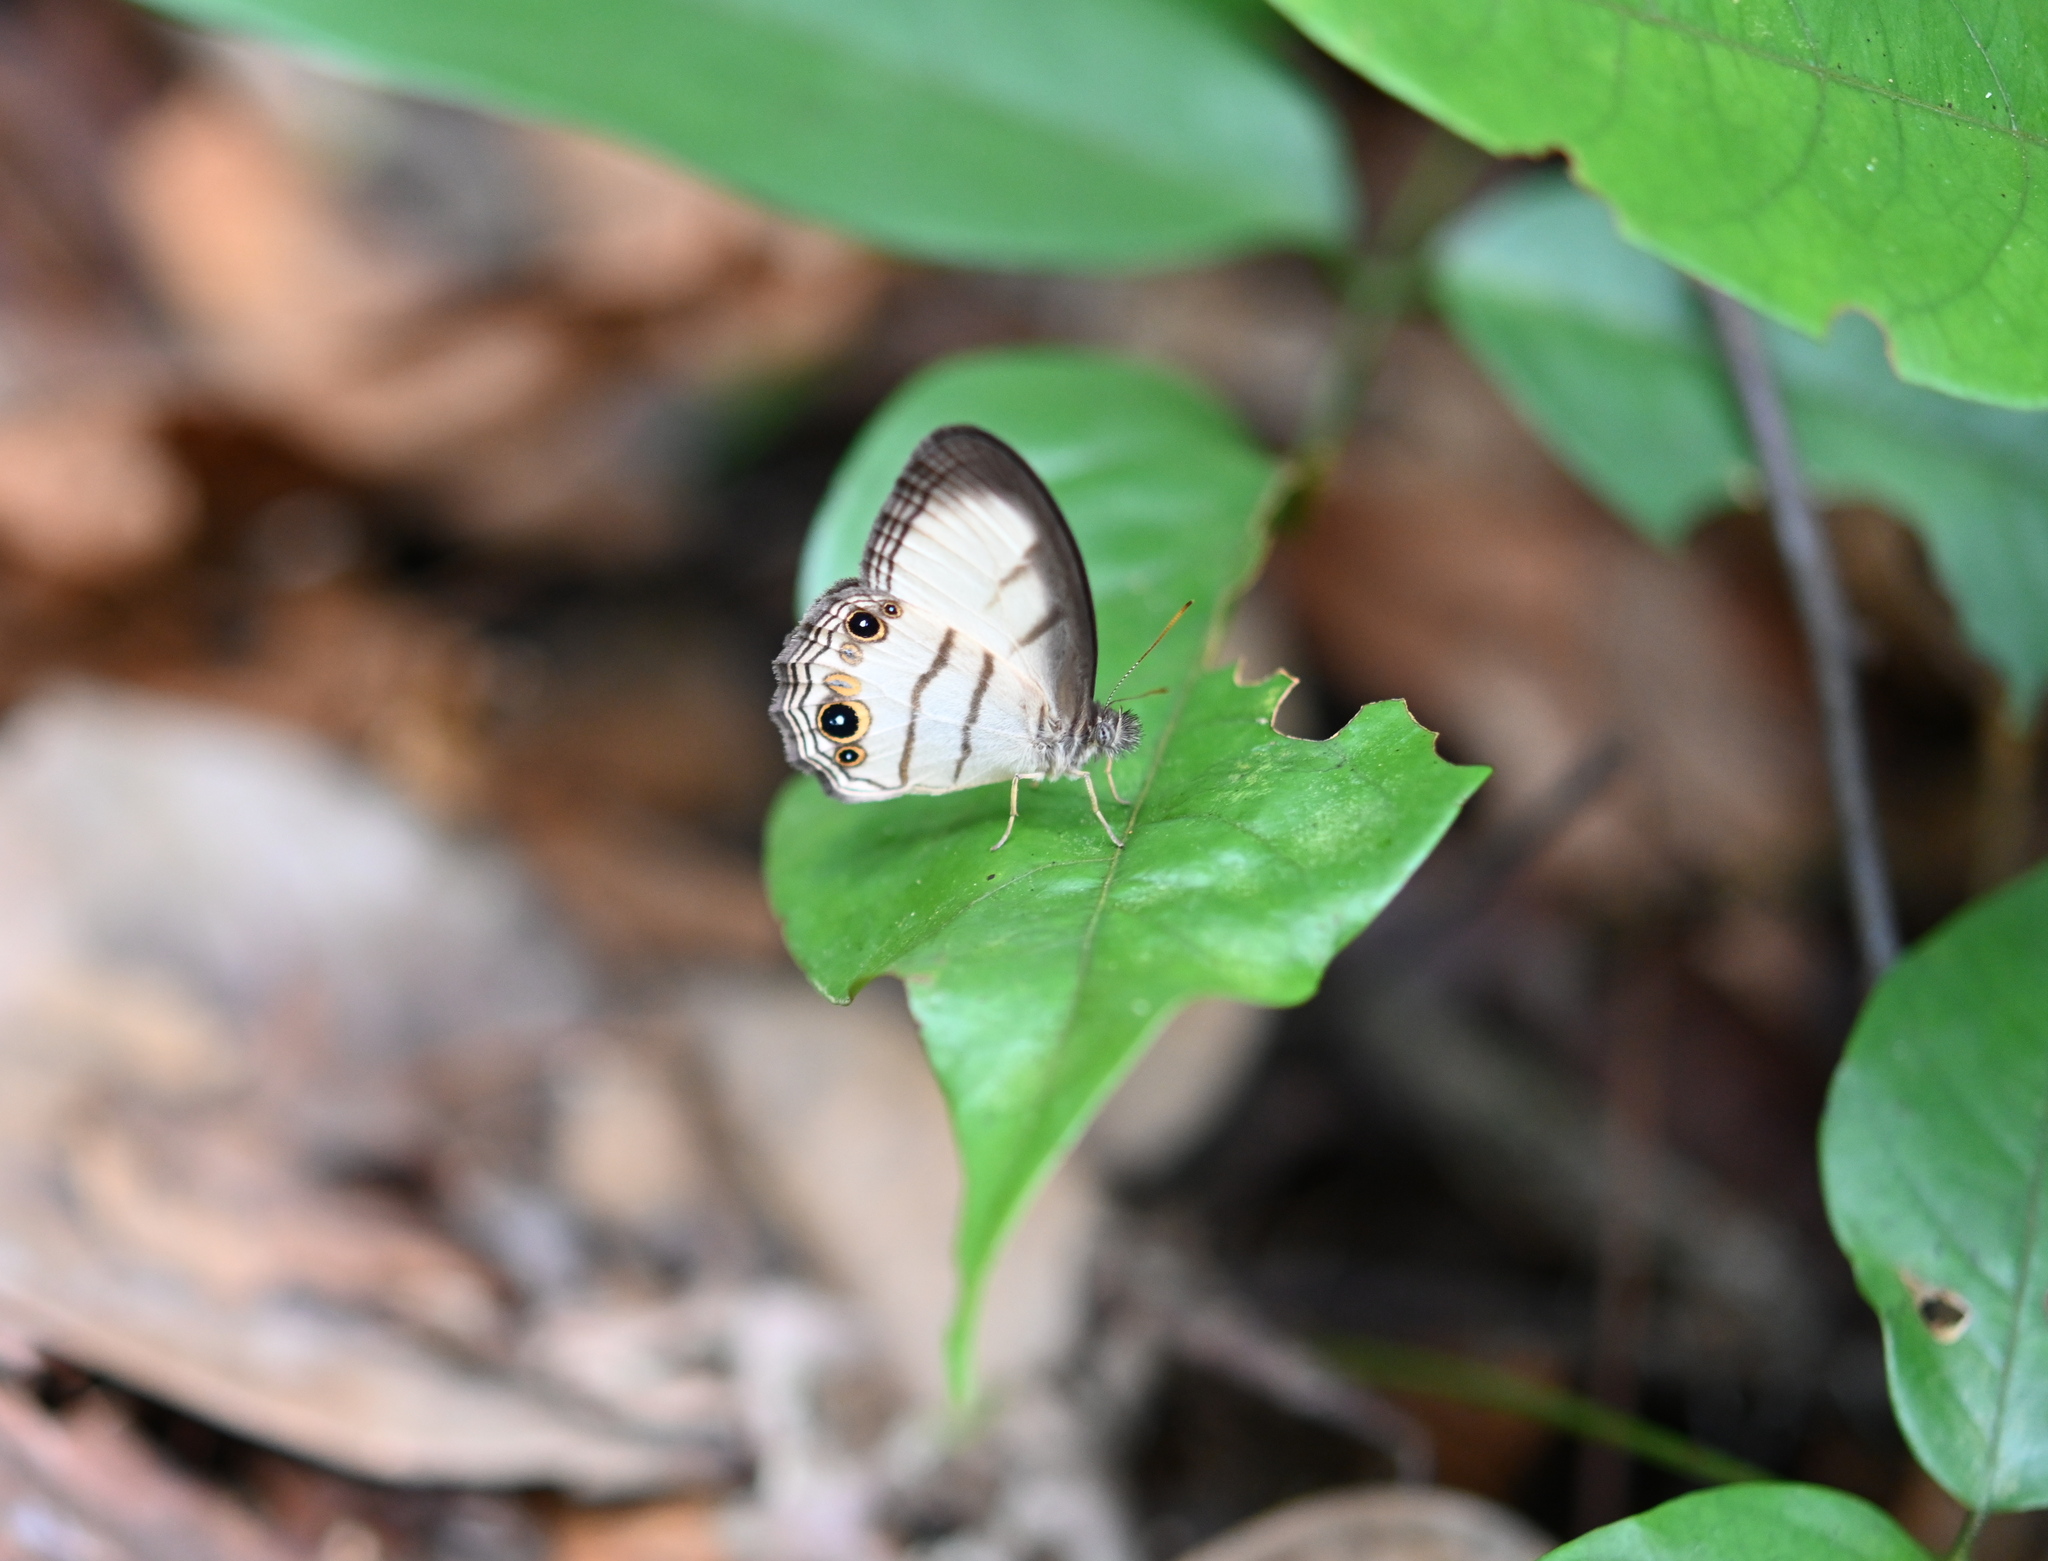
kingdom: Animalia
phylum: Arthropoda
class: Insecta
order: Lepidoptera
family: Nymphalidae
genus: Splendeuptychia
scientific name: Splendeuptychia
